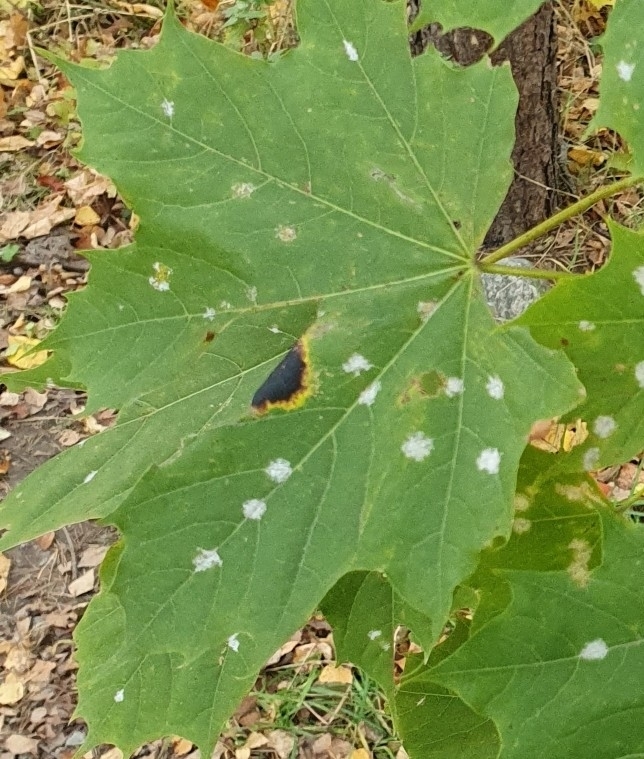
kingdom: Fungi
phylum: Ascomycota
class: Leotiomycetes
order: Rhytismatales
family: Rhytismataceae
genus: Rhytisma
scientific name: Rhytisma acerinum
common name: European tar spot
